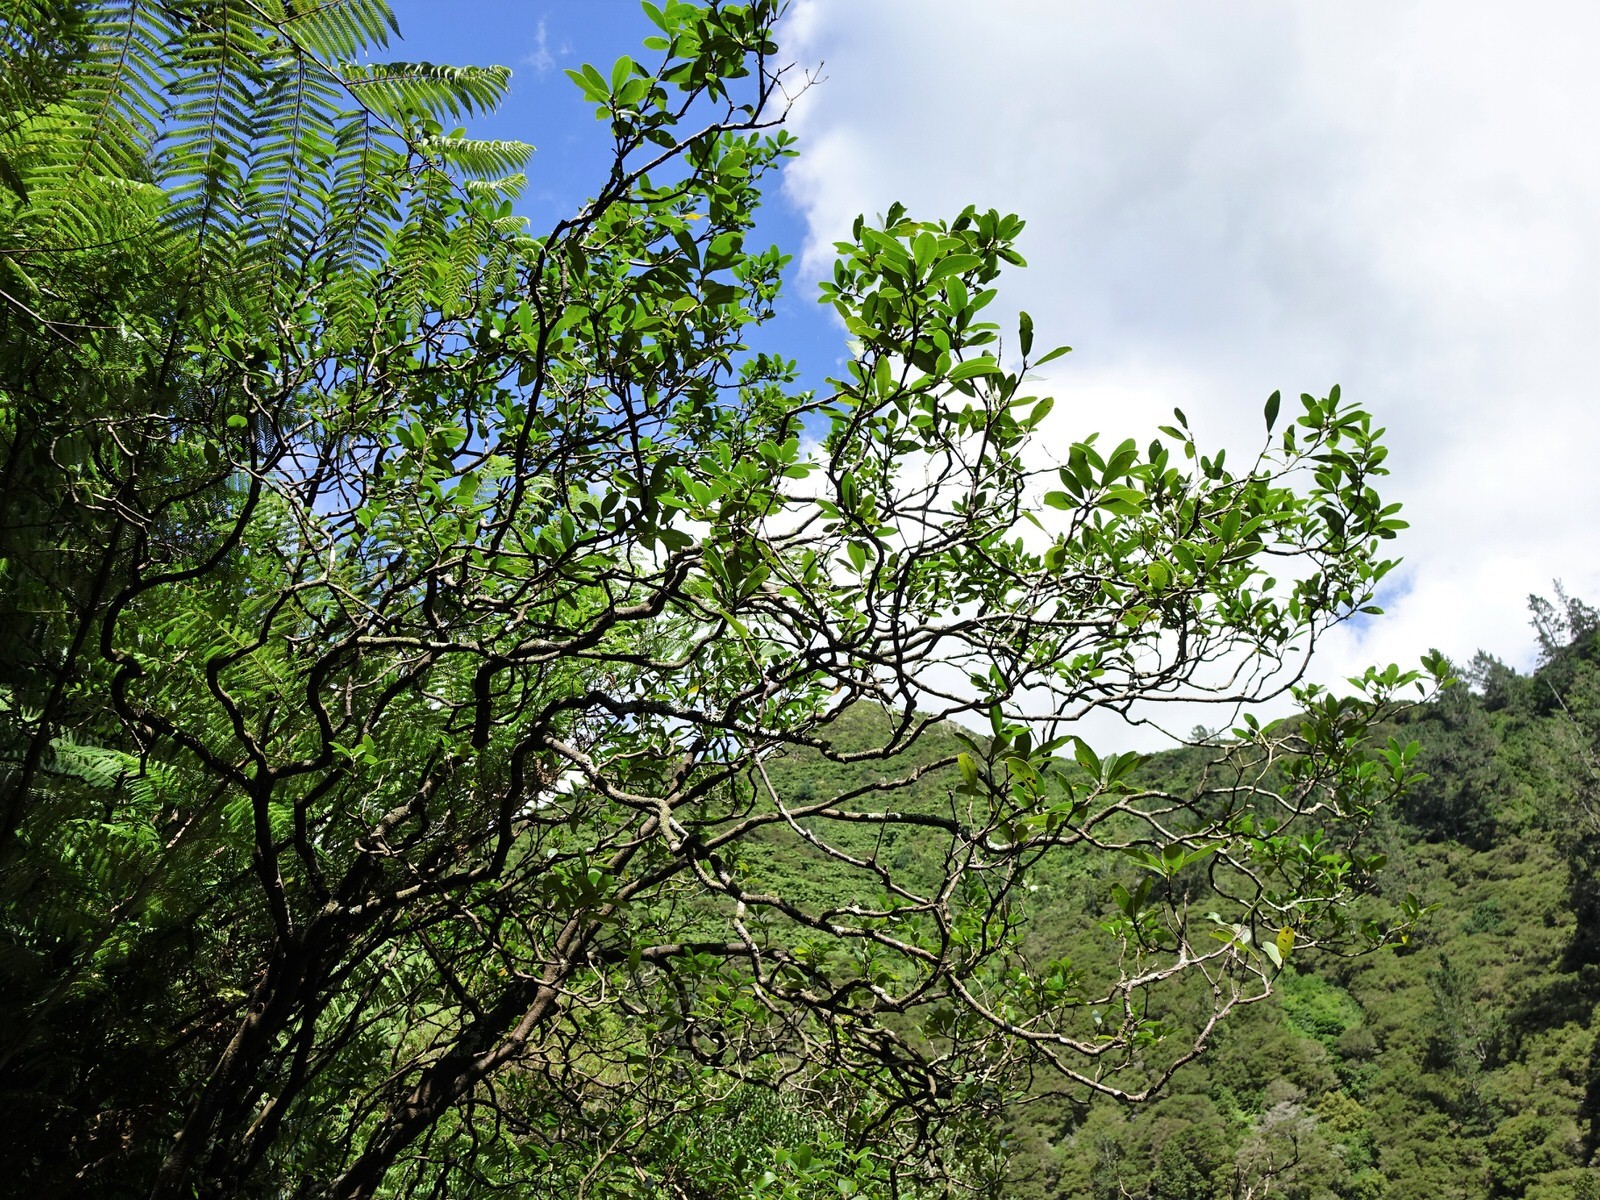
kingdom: Plantae
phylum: Tracheophyta
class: Magnoliopsida
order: Apiales
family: Pittosporaceae
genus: Pittosporum
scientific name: Pittosporum colensoi
